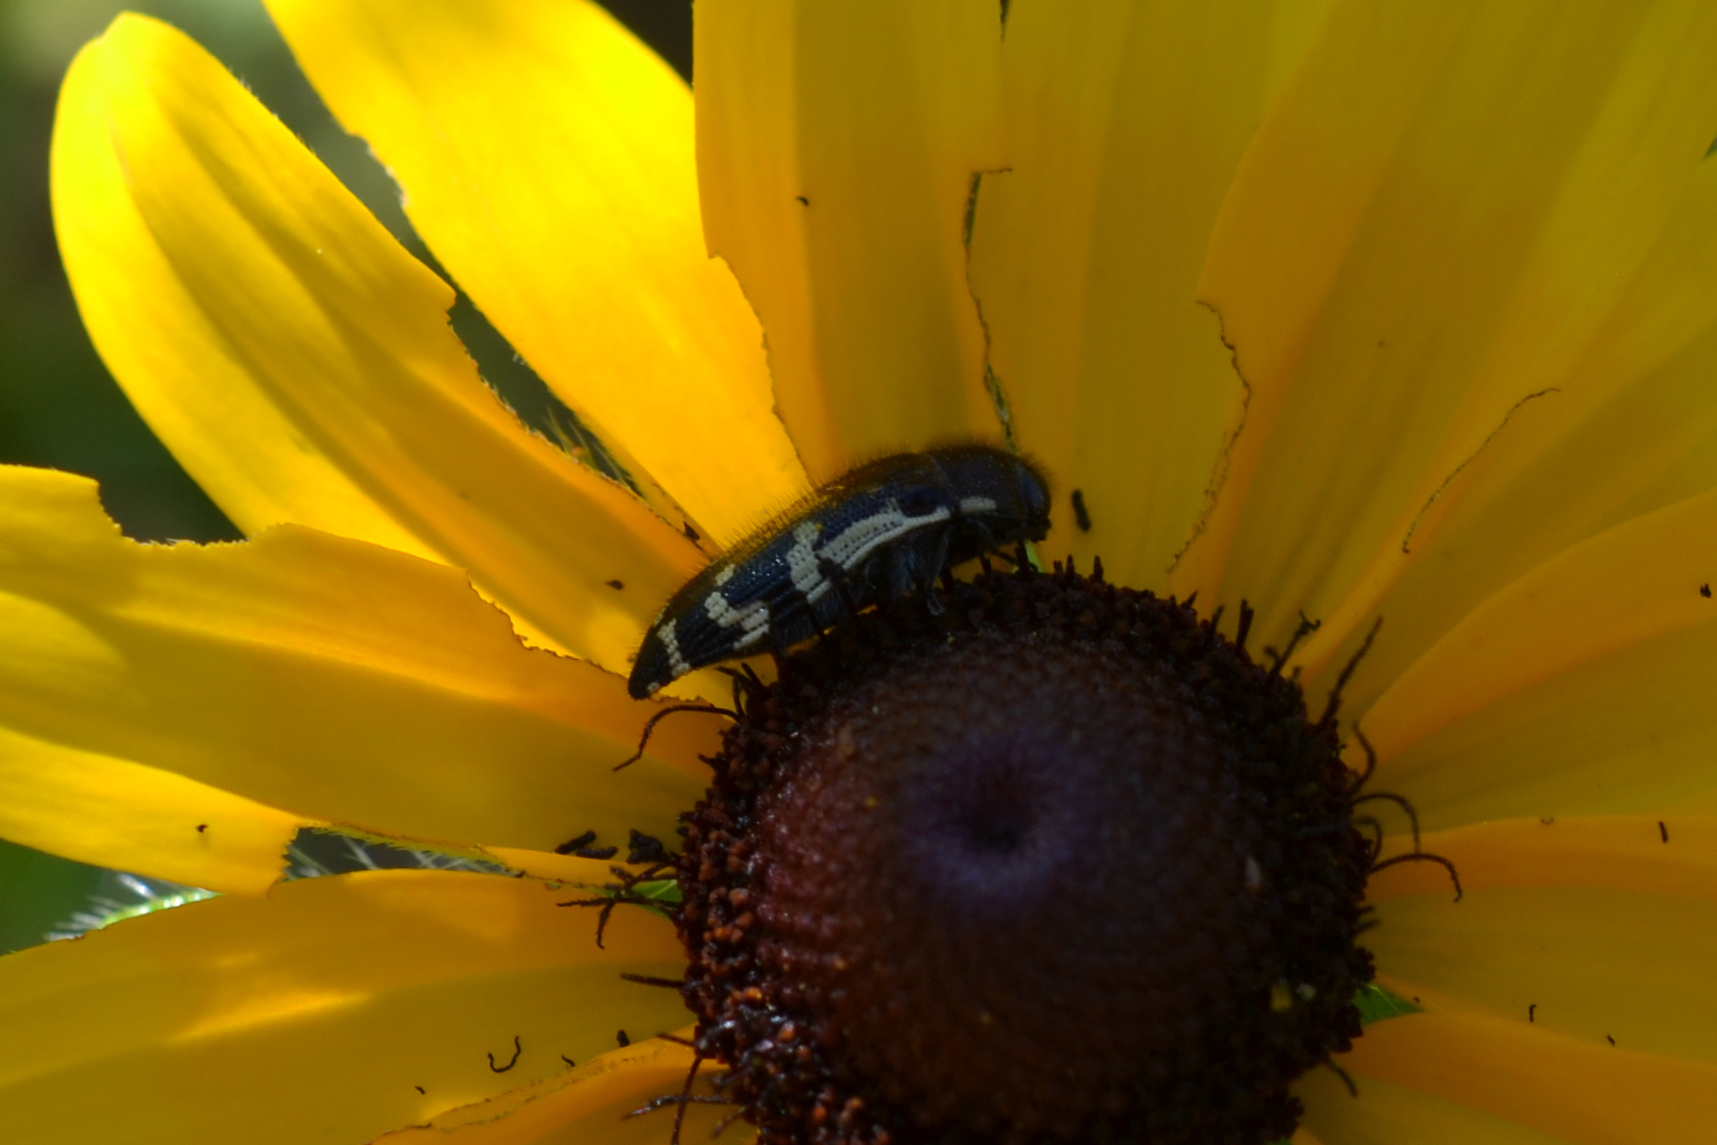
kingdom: Animalia
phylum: Arthropoda
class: Insecta
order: Coleoptera
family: Buprestidae
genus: Acmaeodera
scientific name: Acmaeodera pulchella
